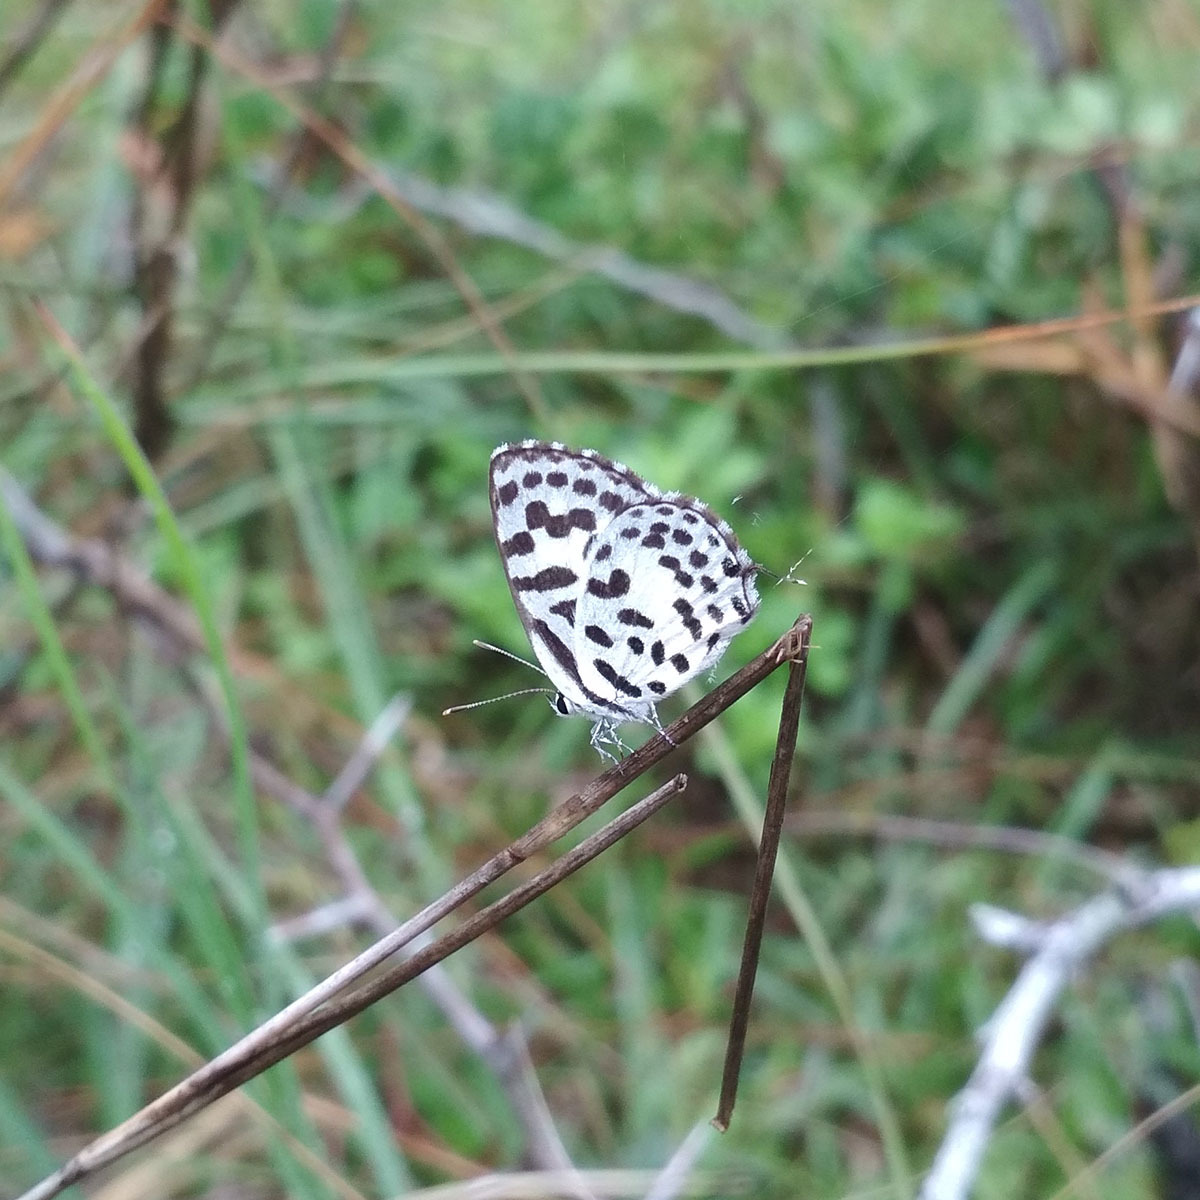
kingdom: Animalia
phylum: Arthropoda
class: Insecta
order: Lepidoptera
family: Lycaenidae
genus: Castalius
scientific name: Castalius rosimon
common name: Common pierrot
